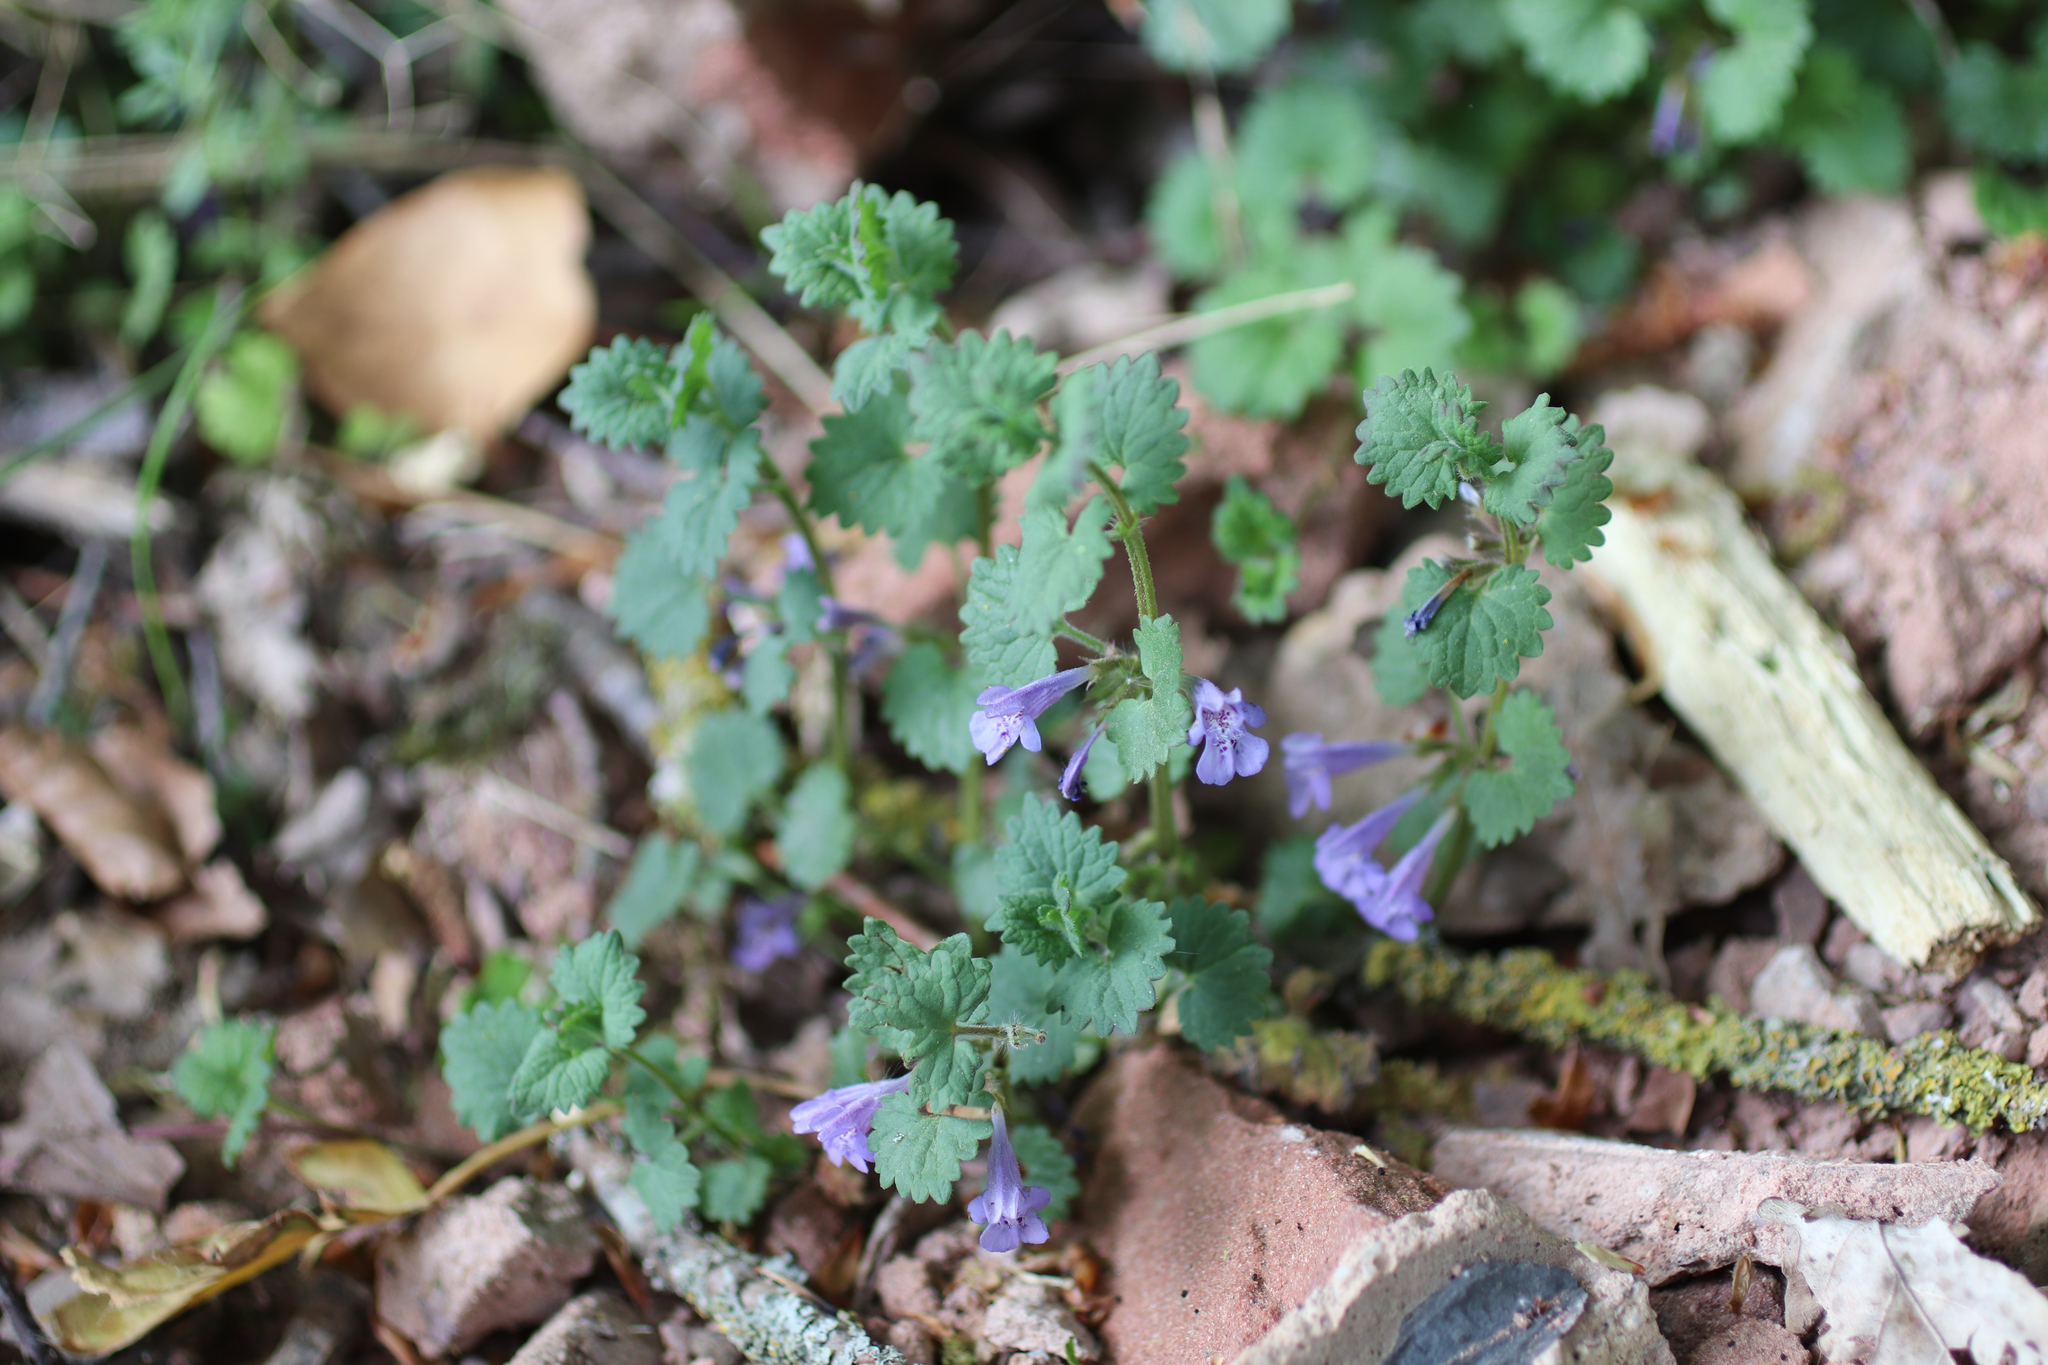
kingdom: Plantae
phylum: Tracheophyta
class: Magnoliopsida
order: Lamiales
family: Lamiaceae
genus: Glechoma
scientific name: Glechoma hederacea
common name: Ground ivy
